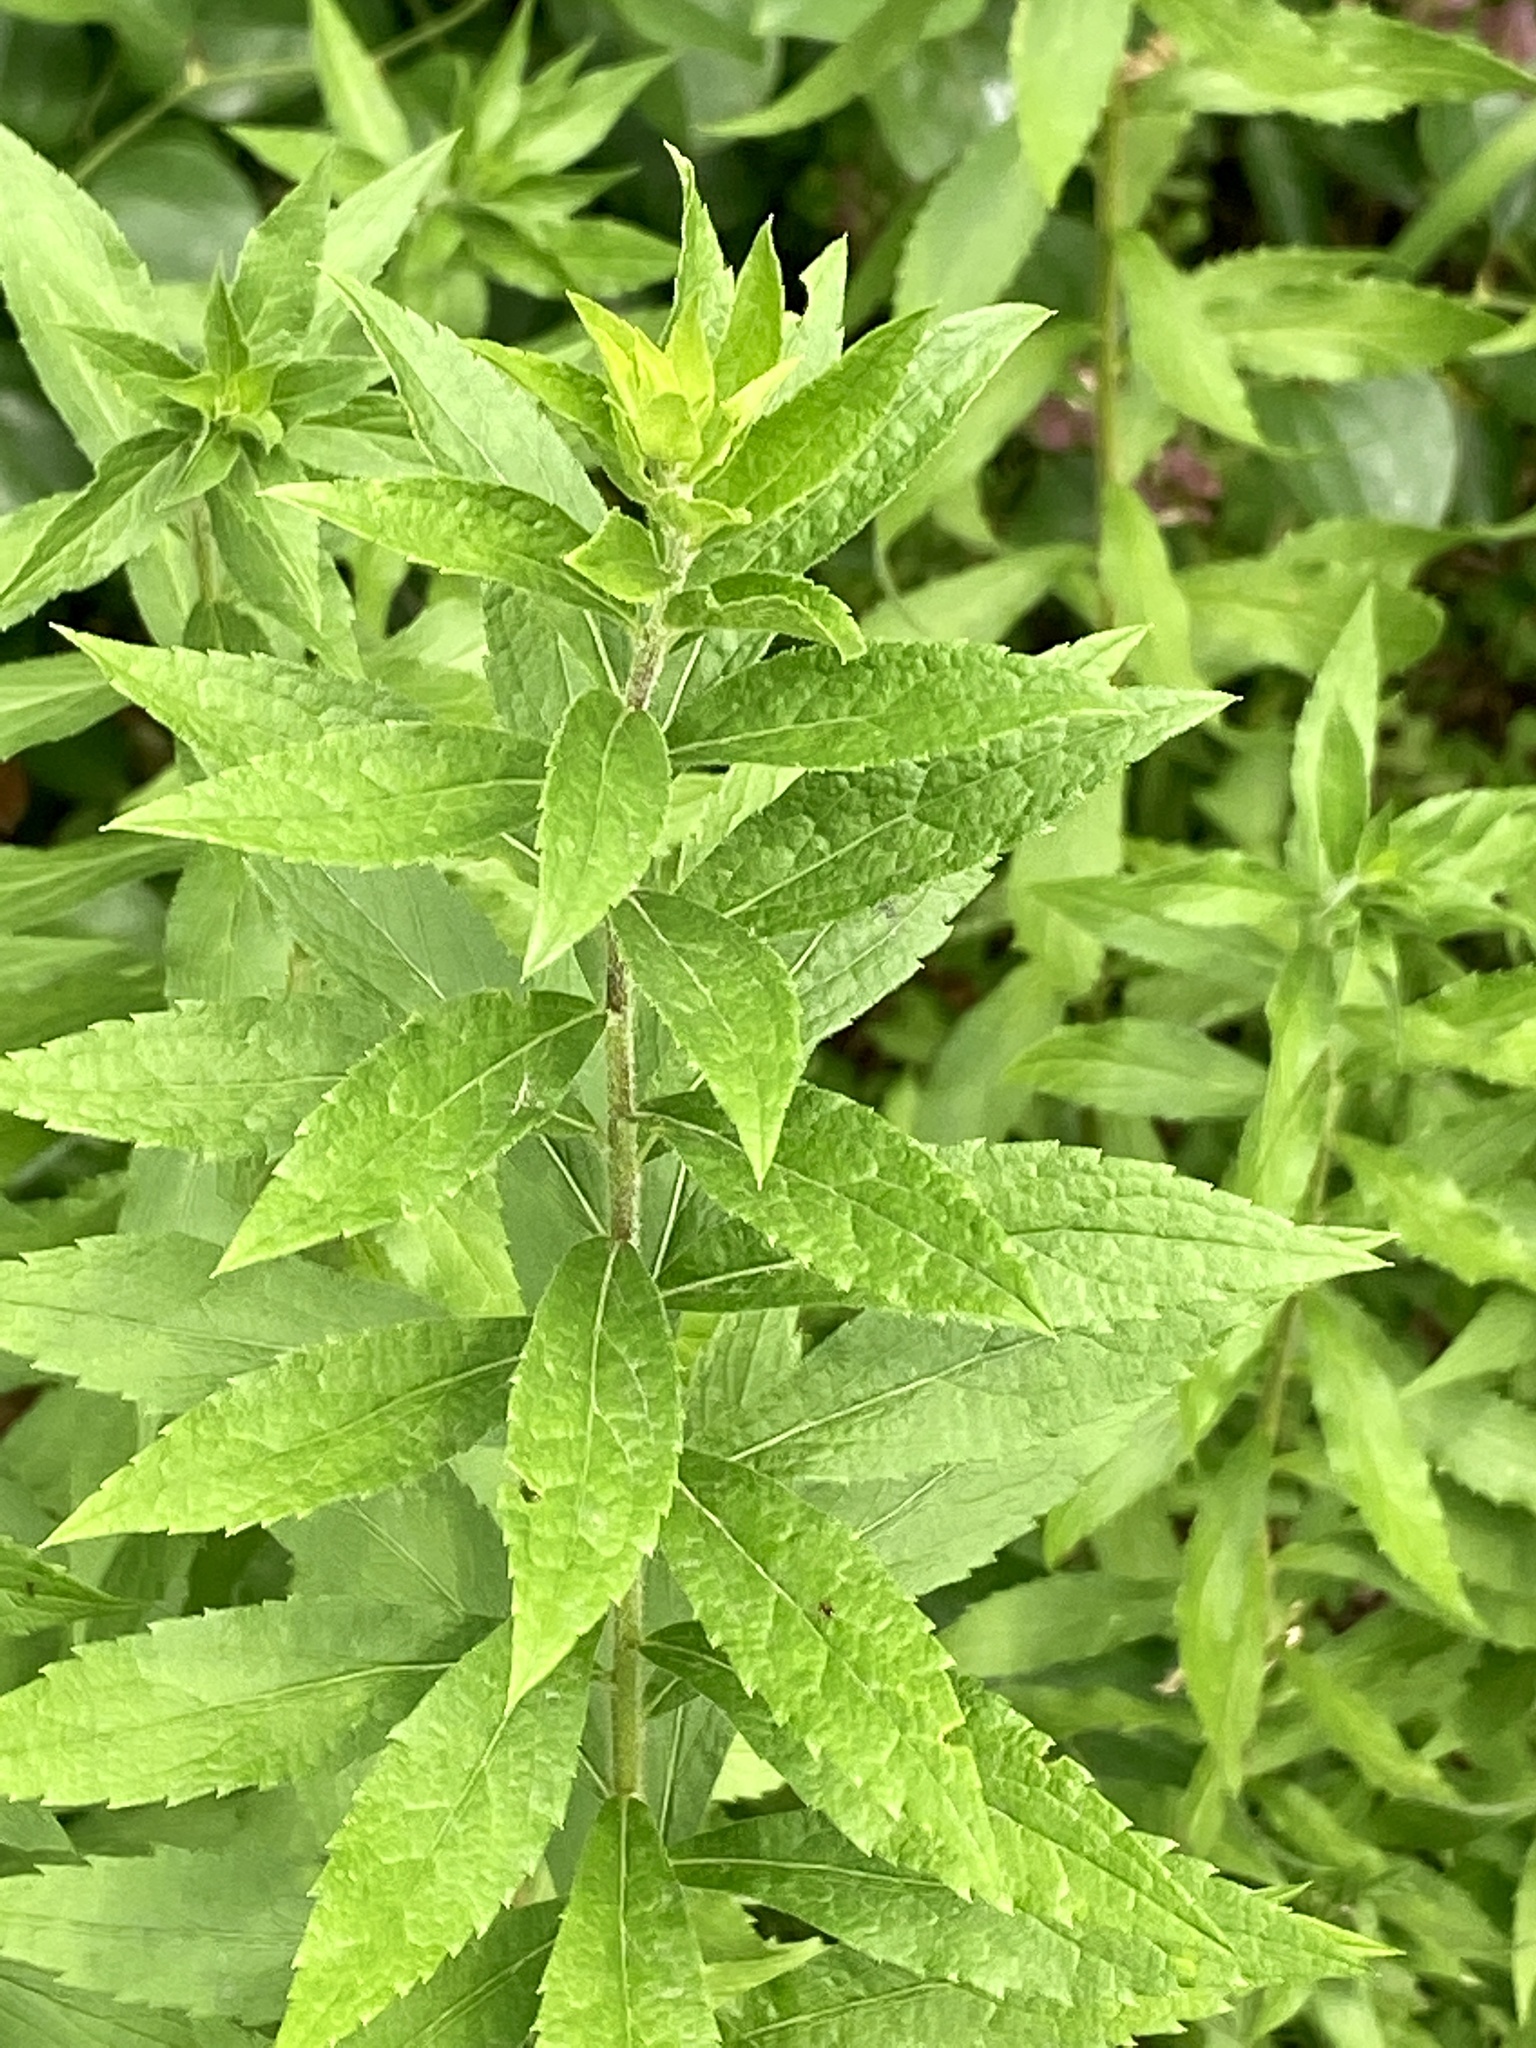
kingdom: Plantae
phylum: Tracheophyta
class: Magnoliopsida
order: Asterales
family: Asteraceae
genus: Solidago
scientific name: Solidago rugosa
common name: Rough-stemmed goldenrod
